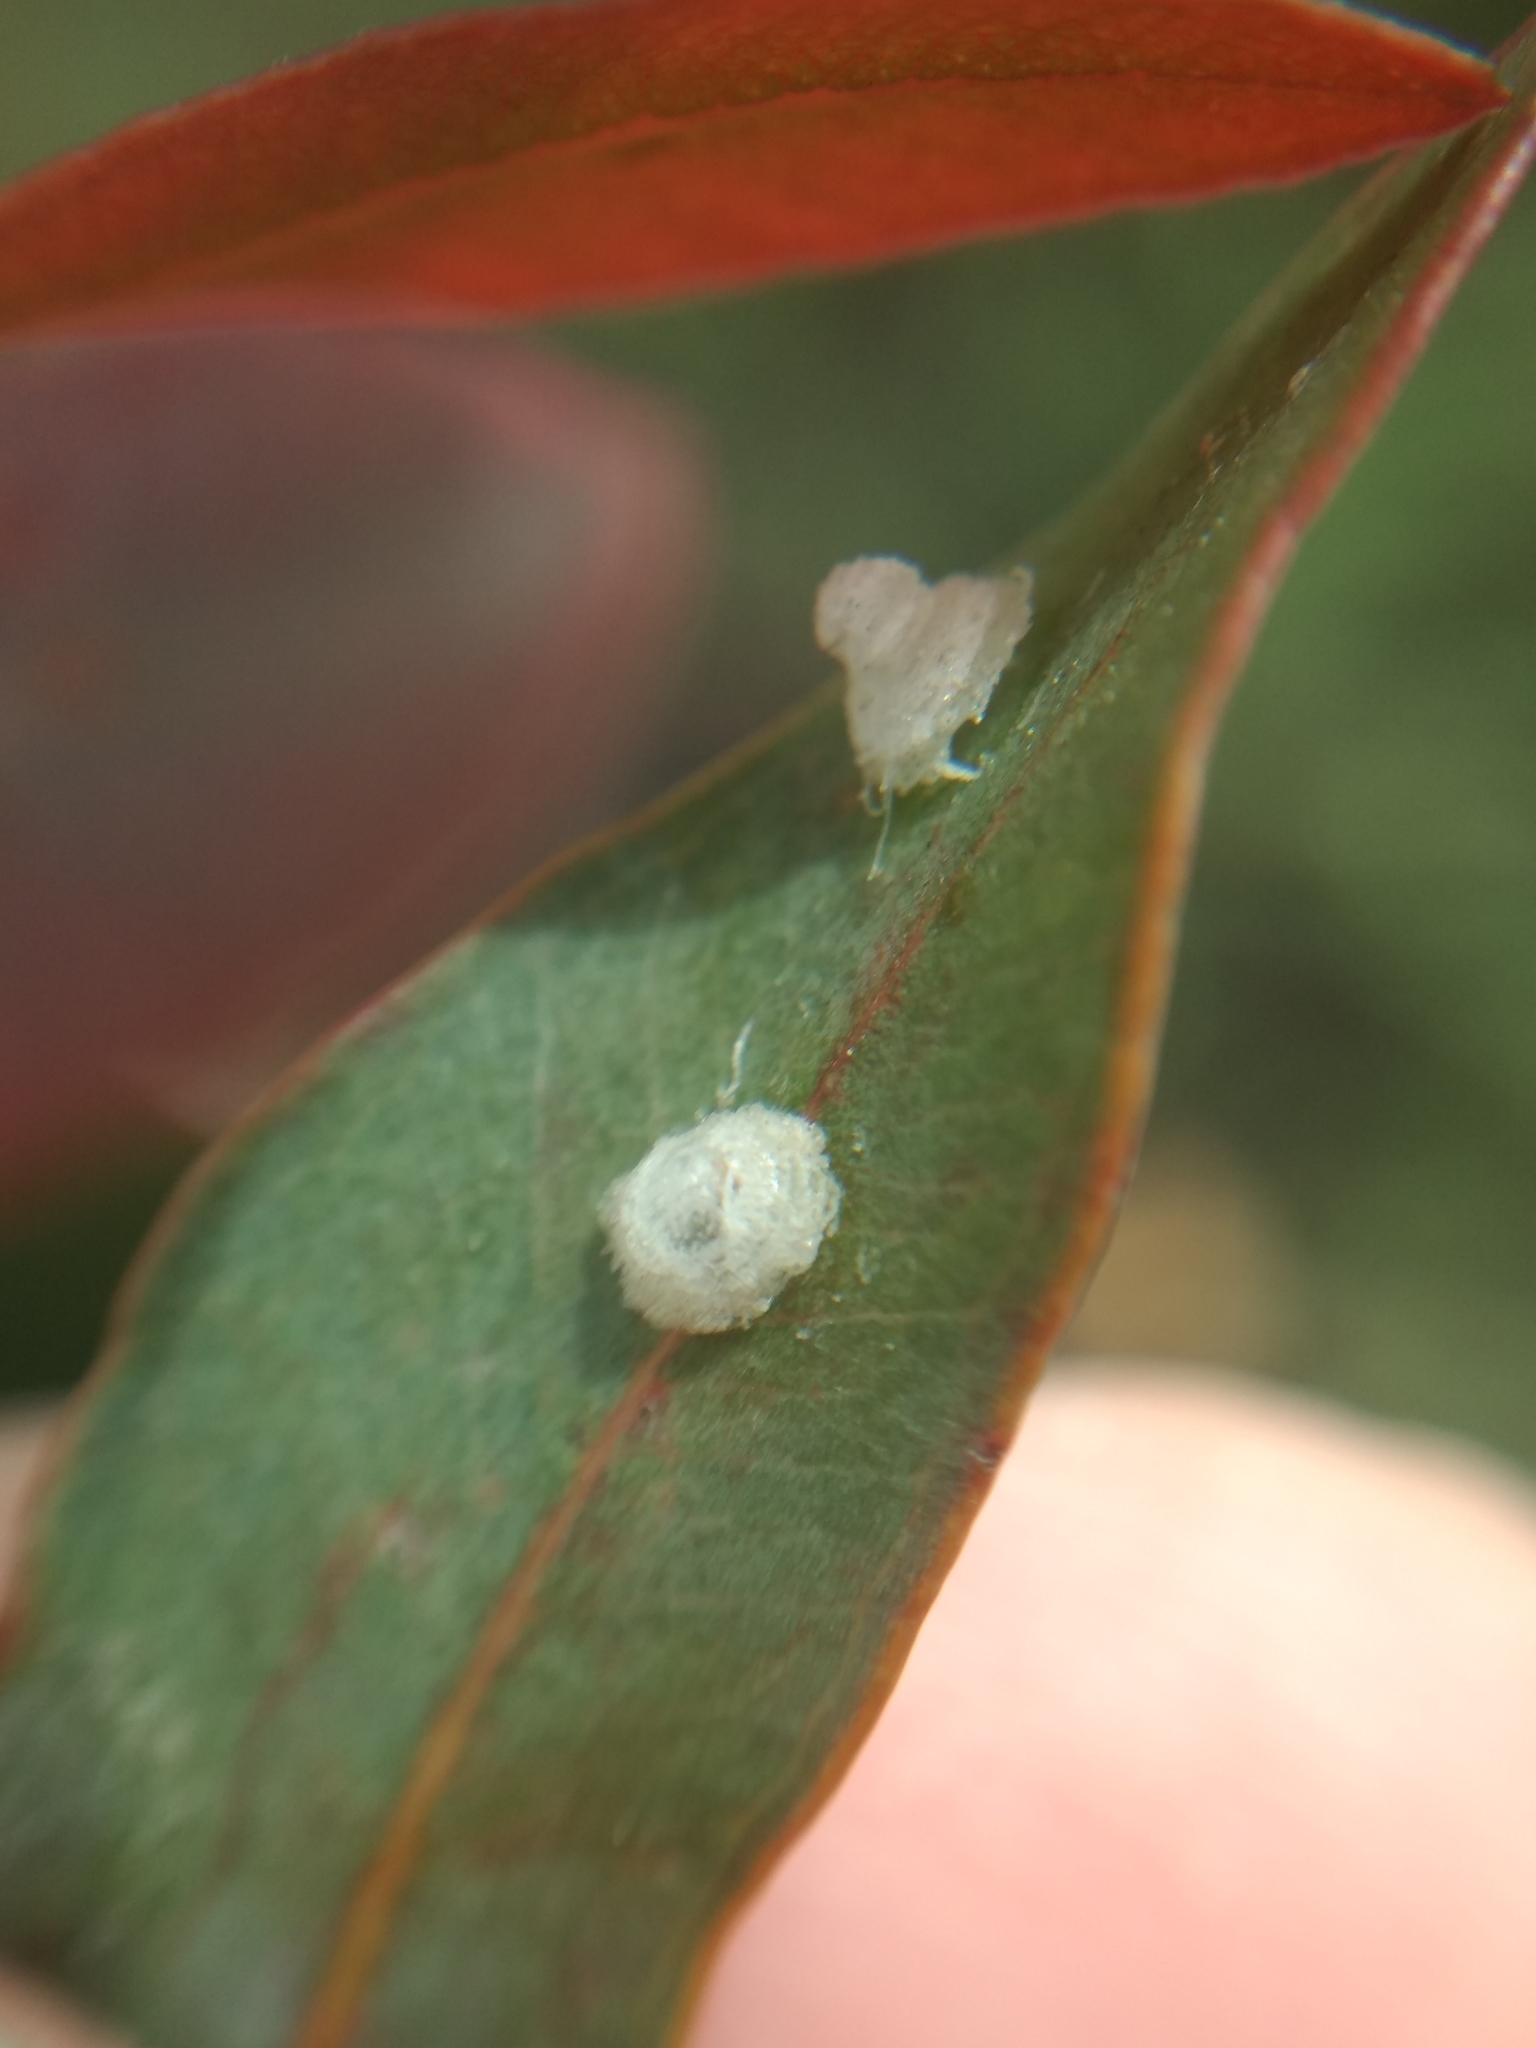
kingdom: Animalia
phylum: Arthropoda
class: Insecta
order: Hemiptera
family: Aphalaridae
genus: Glycaspis
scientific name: Glycaspis brimblecombei
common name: Red gum lerp psyllid
